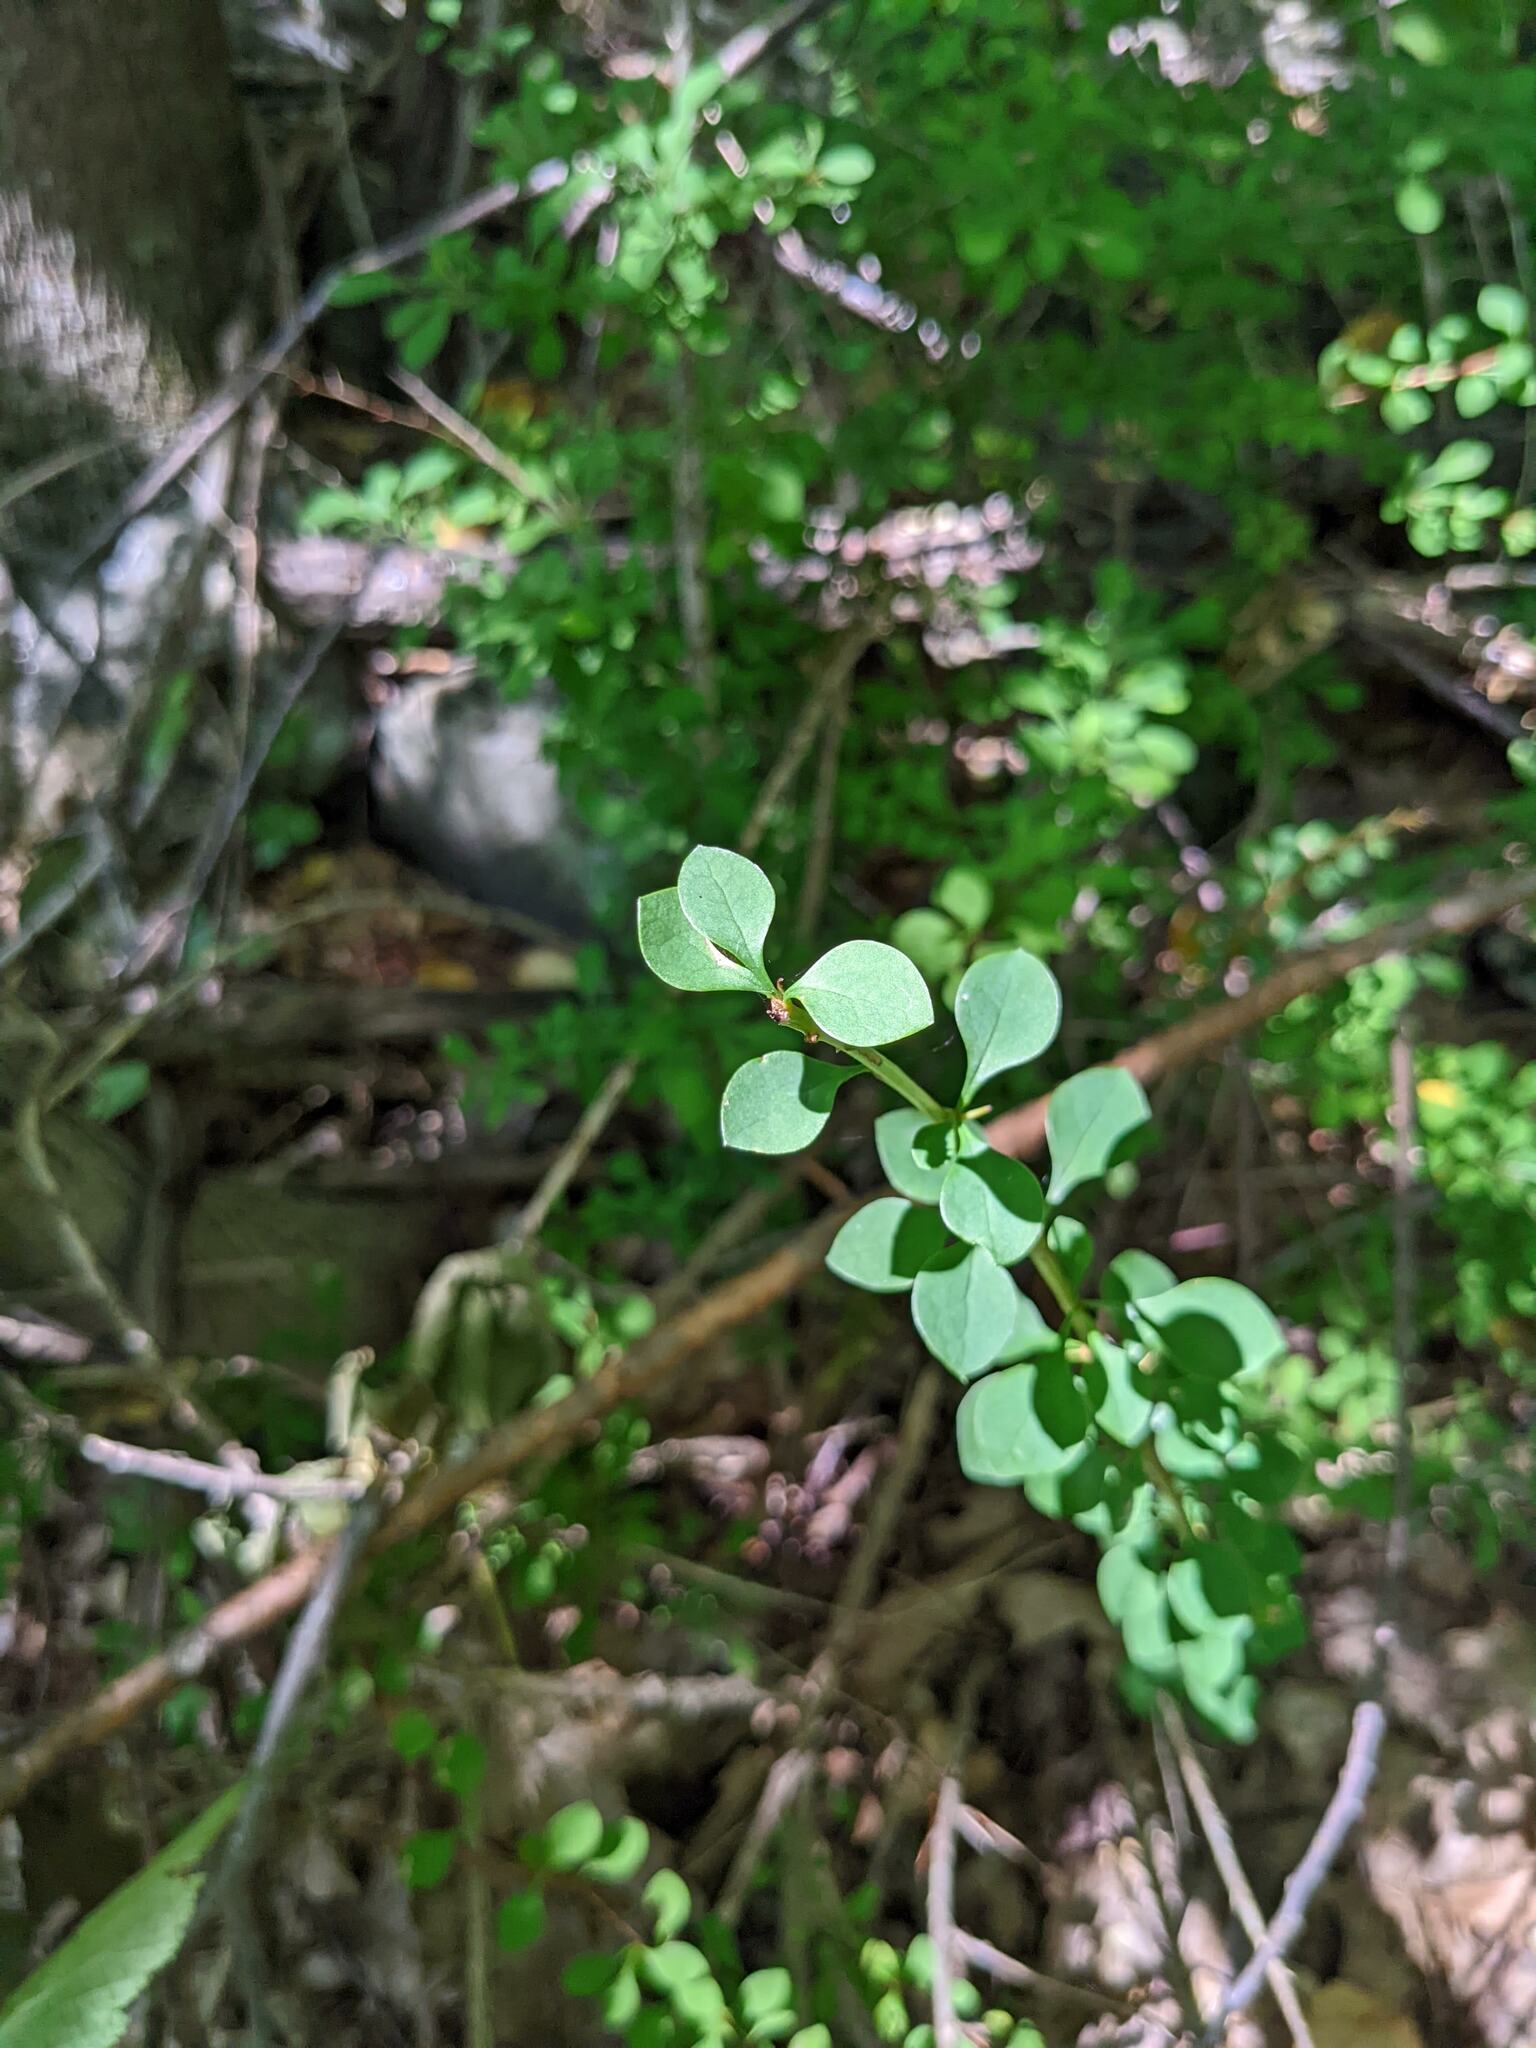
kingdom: Plantae
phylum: Tracheophyta
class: Magnoliopsida
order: Ranunculales
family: Berberidaceae
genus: Berberis
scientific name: Berberis thunbergii
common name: Japanese barberry
